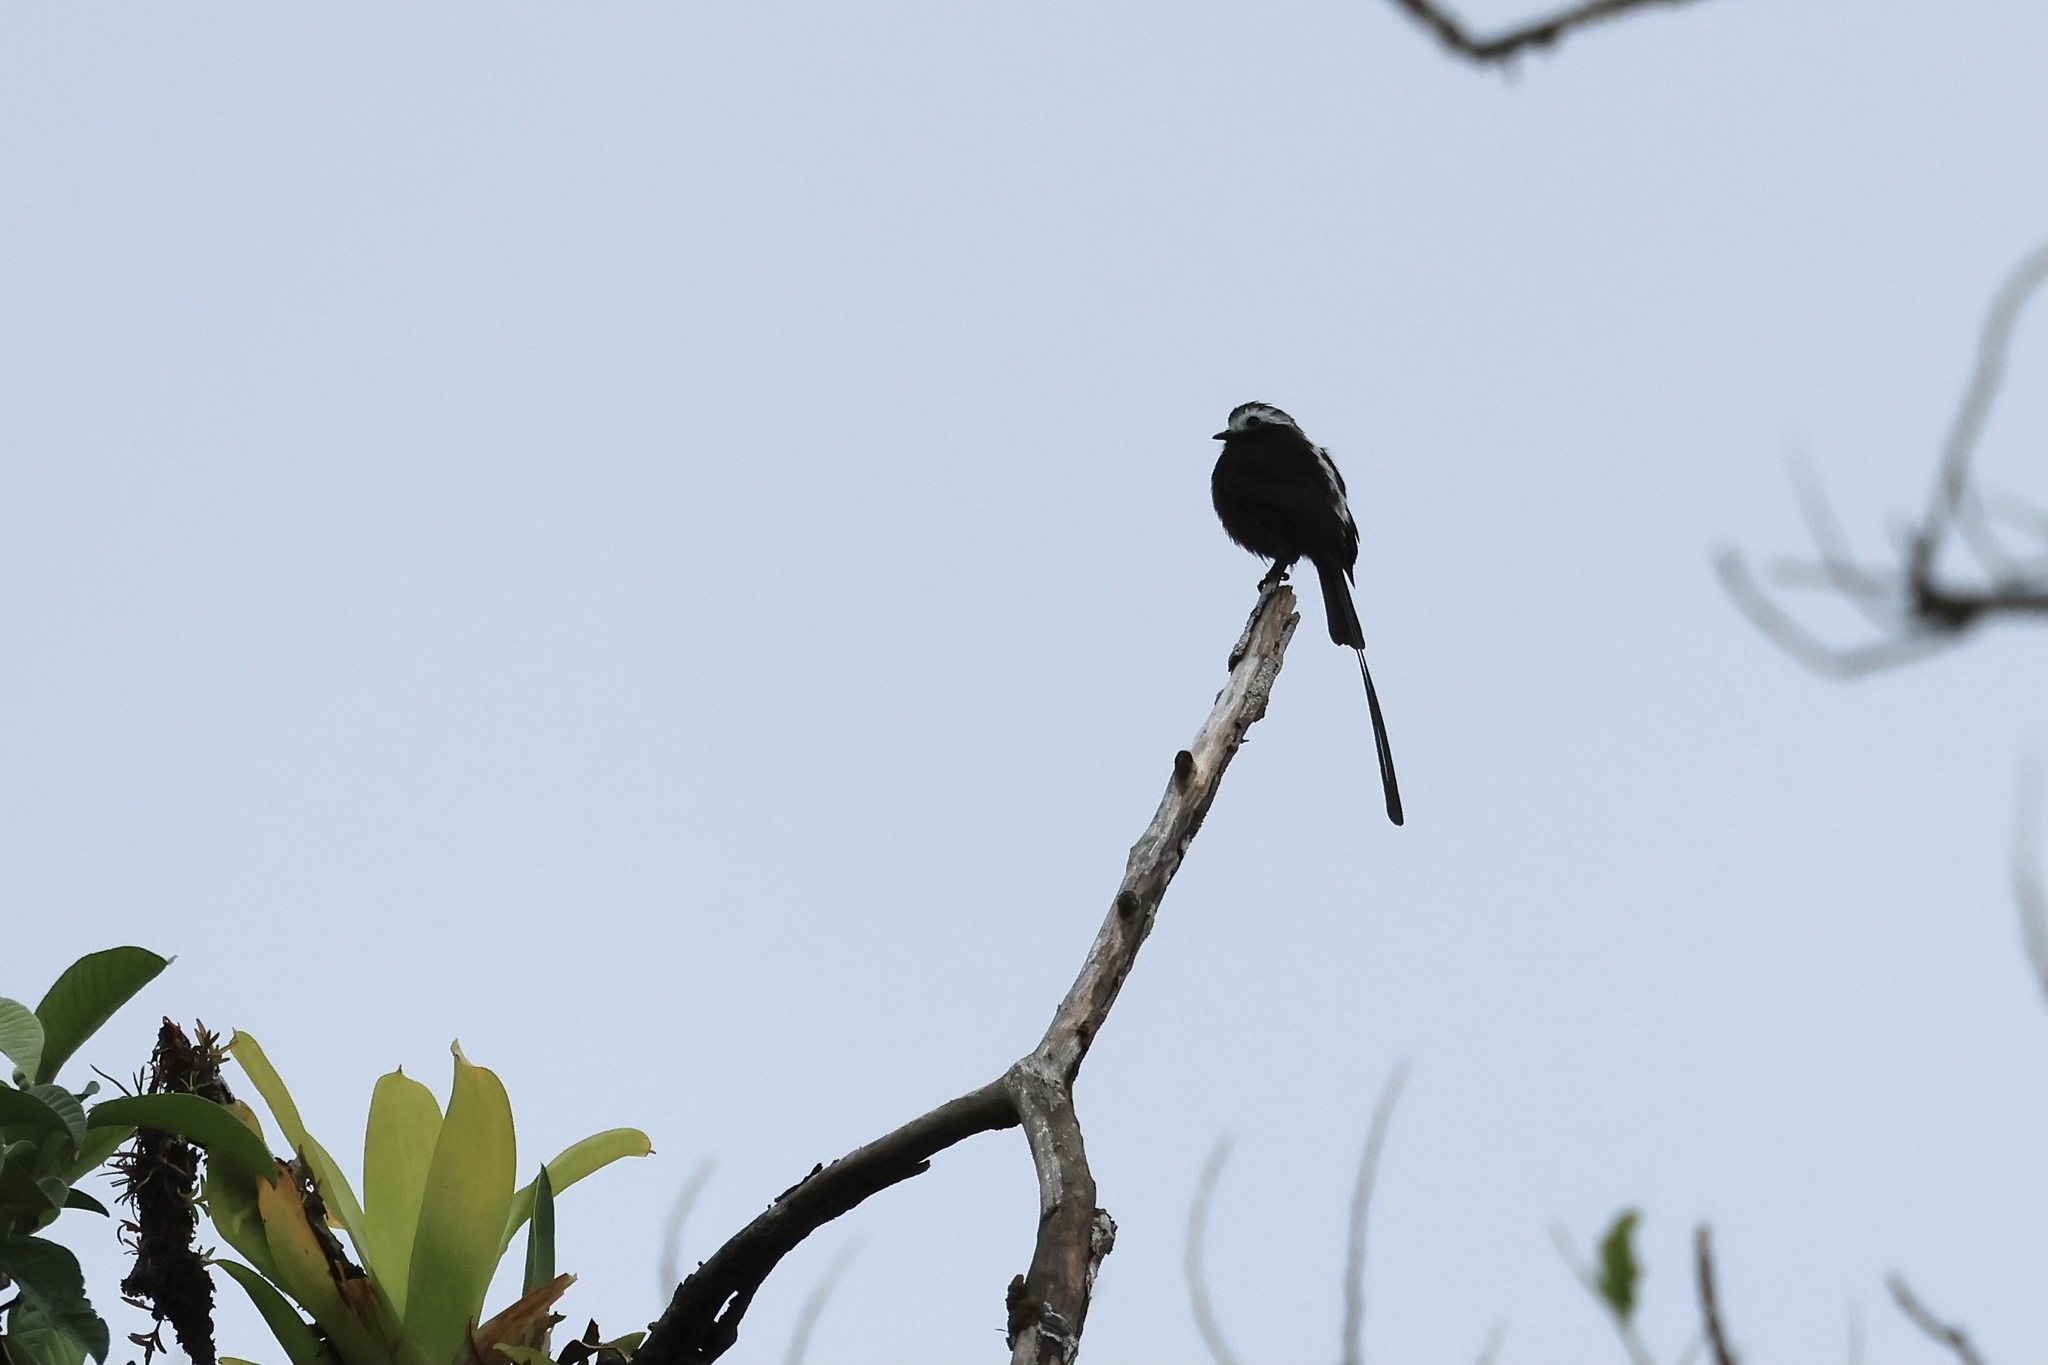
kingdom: Animalia
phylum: Chordata
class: Aves
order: Passeriformes
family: Tyrannidae
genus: Colonia
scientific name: Colonia colonus
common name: Long-tailed tyrant
